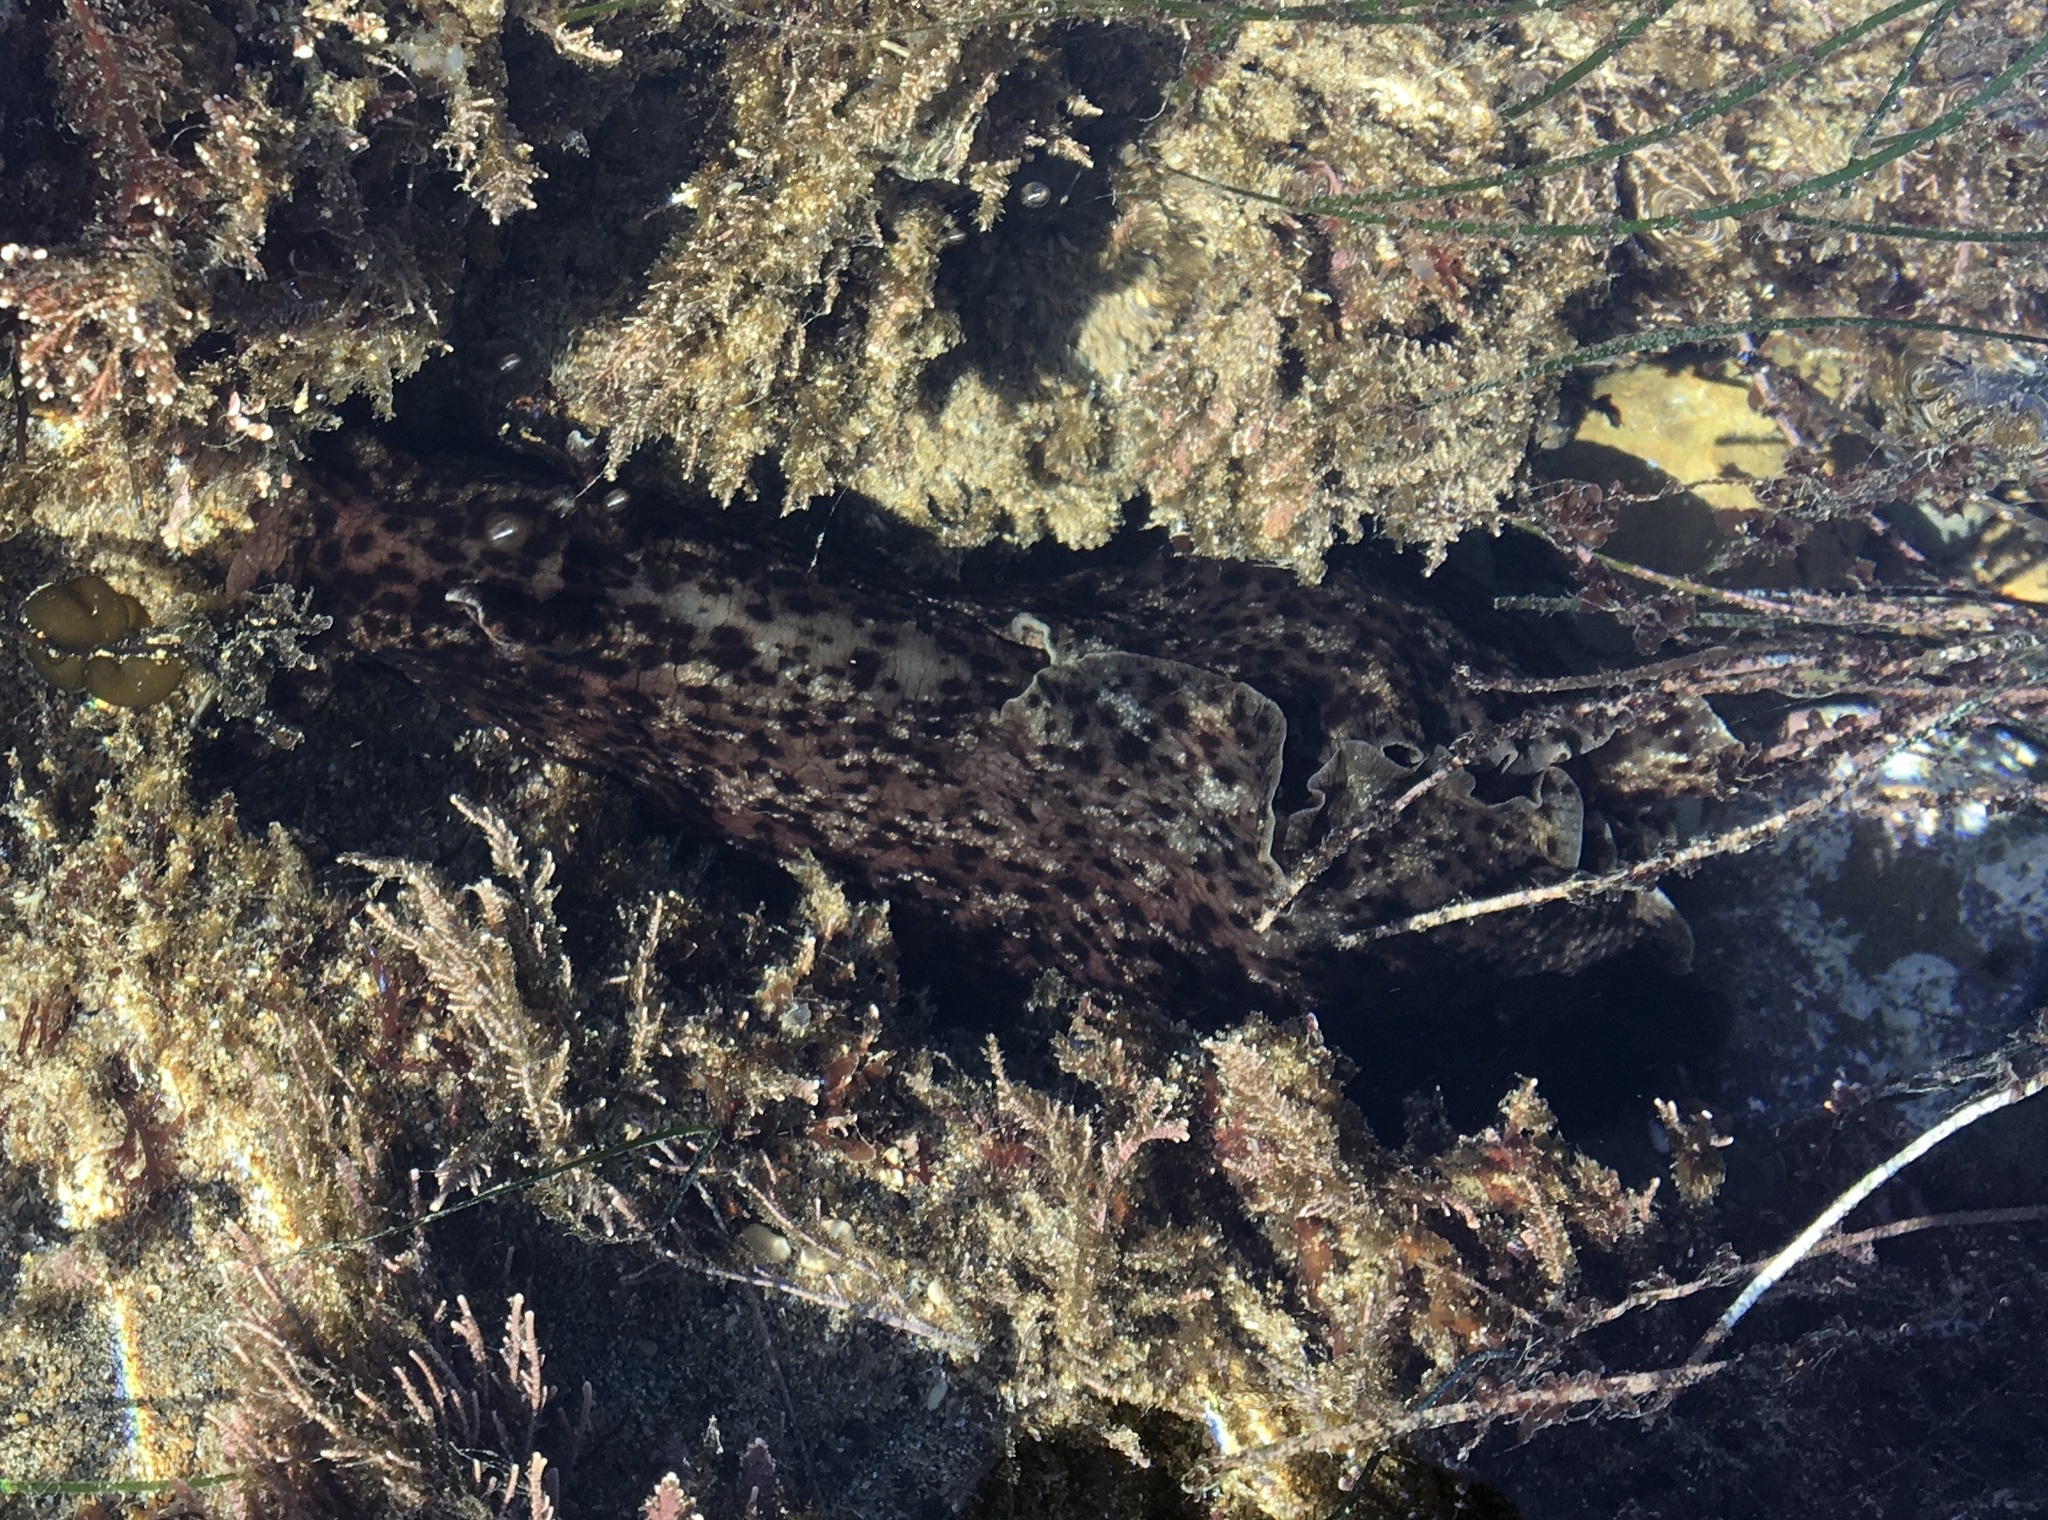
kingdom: Animalia
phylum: Mollusca
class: Gastropoda
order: Aplysiida
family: Aplysiidae
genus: Aplysia
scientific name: Aplysia californica
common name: California seahare
